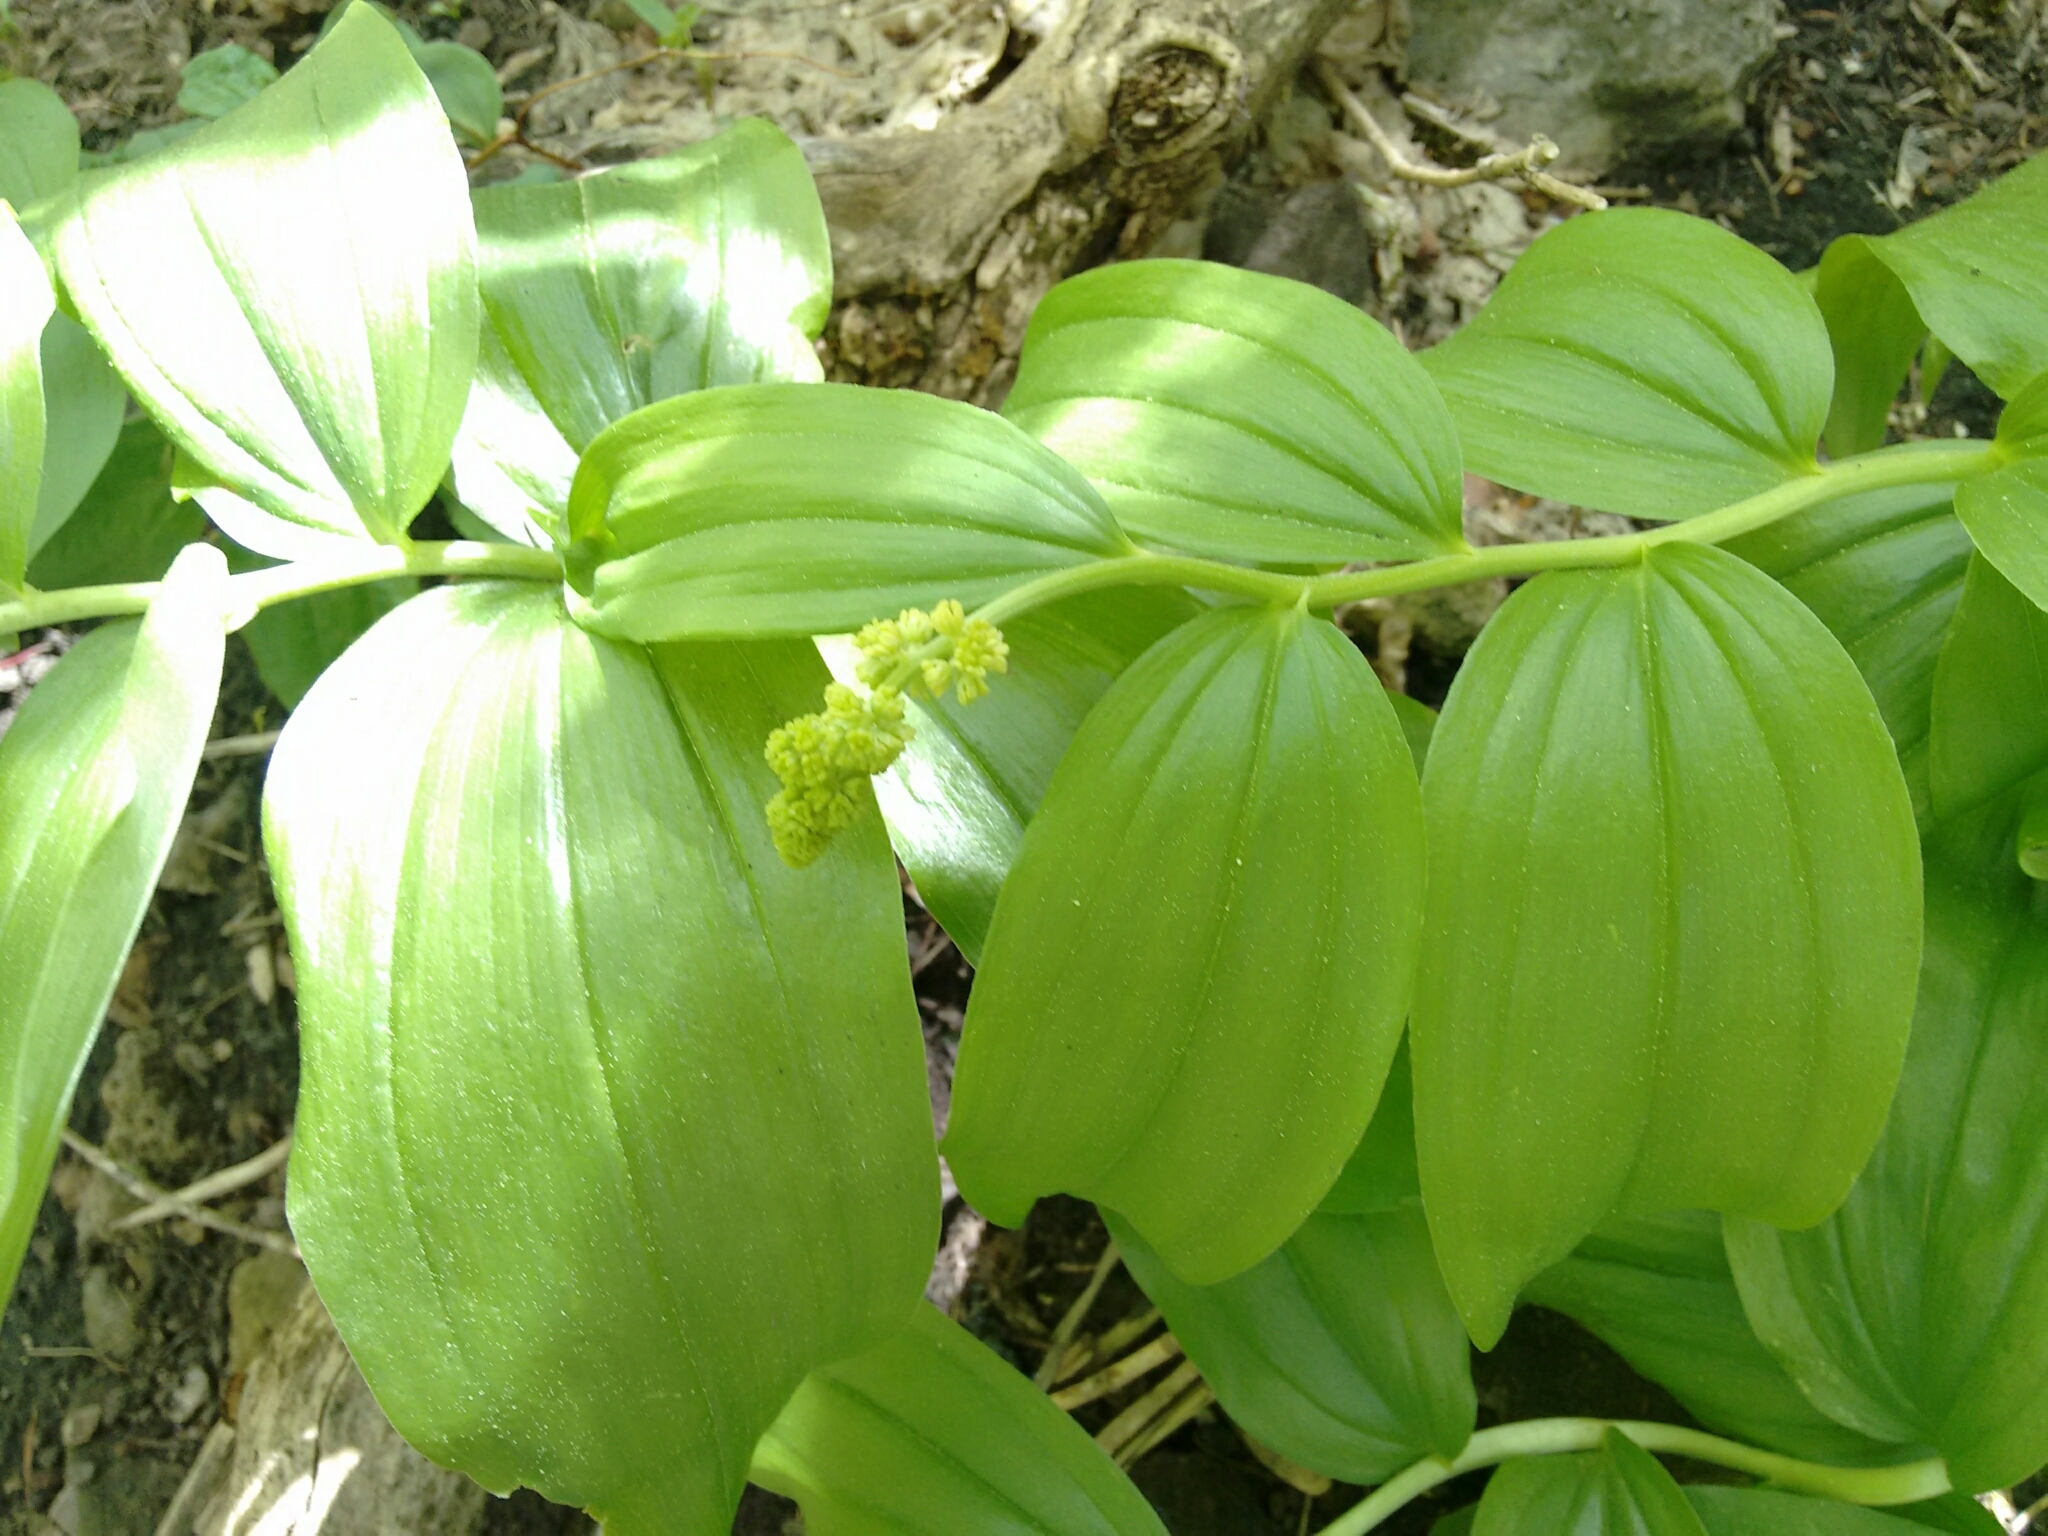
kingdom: Plantae
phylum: Tracheophyta
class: Liliopsida
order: Asparagales
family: Asparagaceae
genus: Maianthemum
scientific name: Maianthemum racemosum
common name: False spikenard
